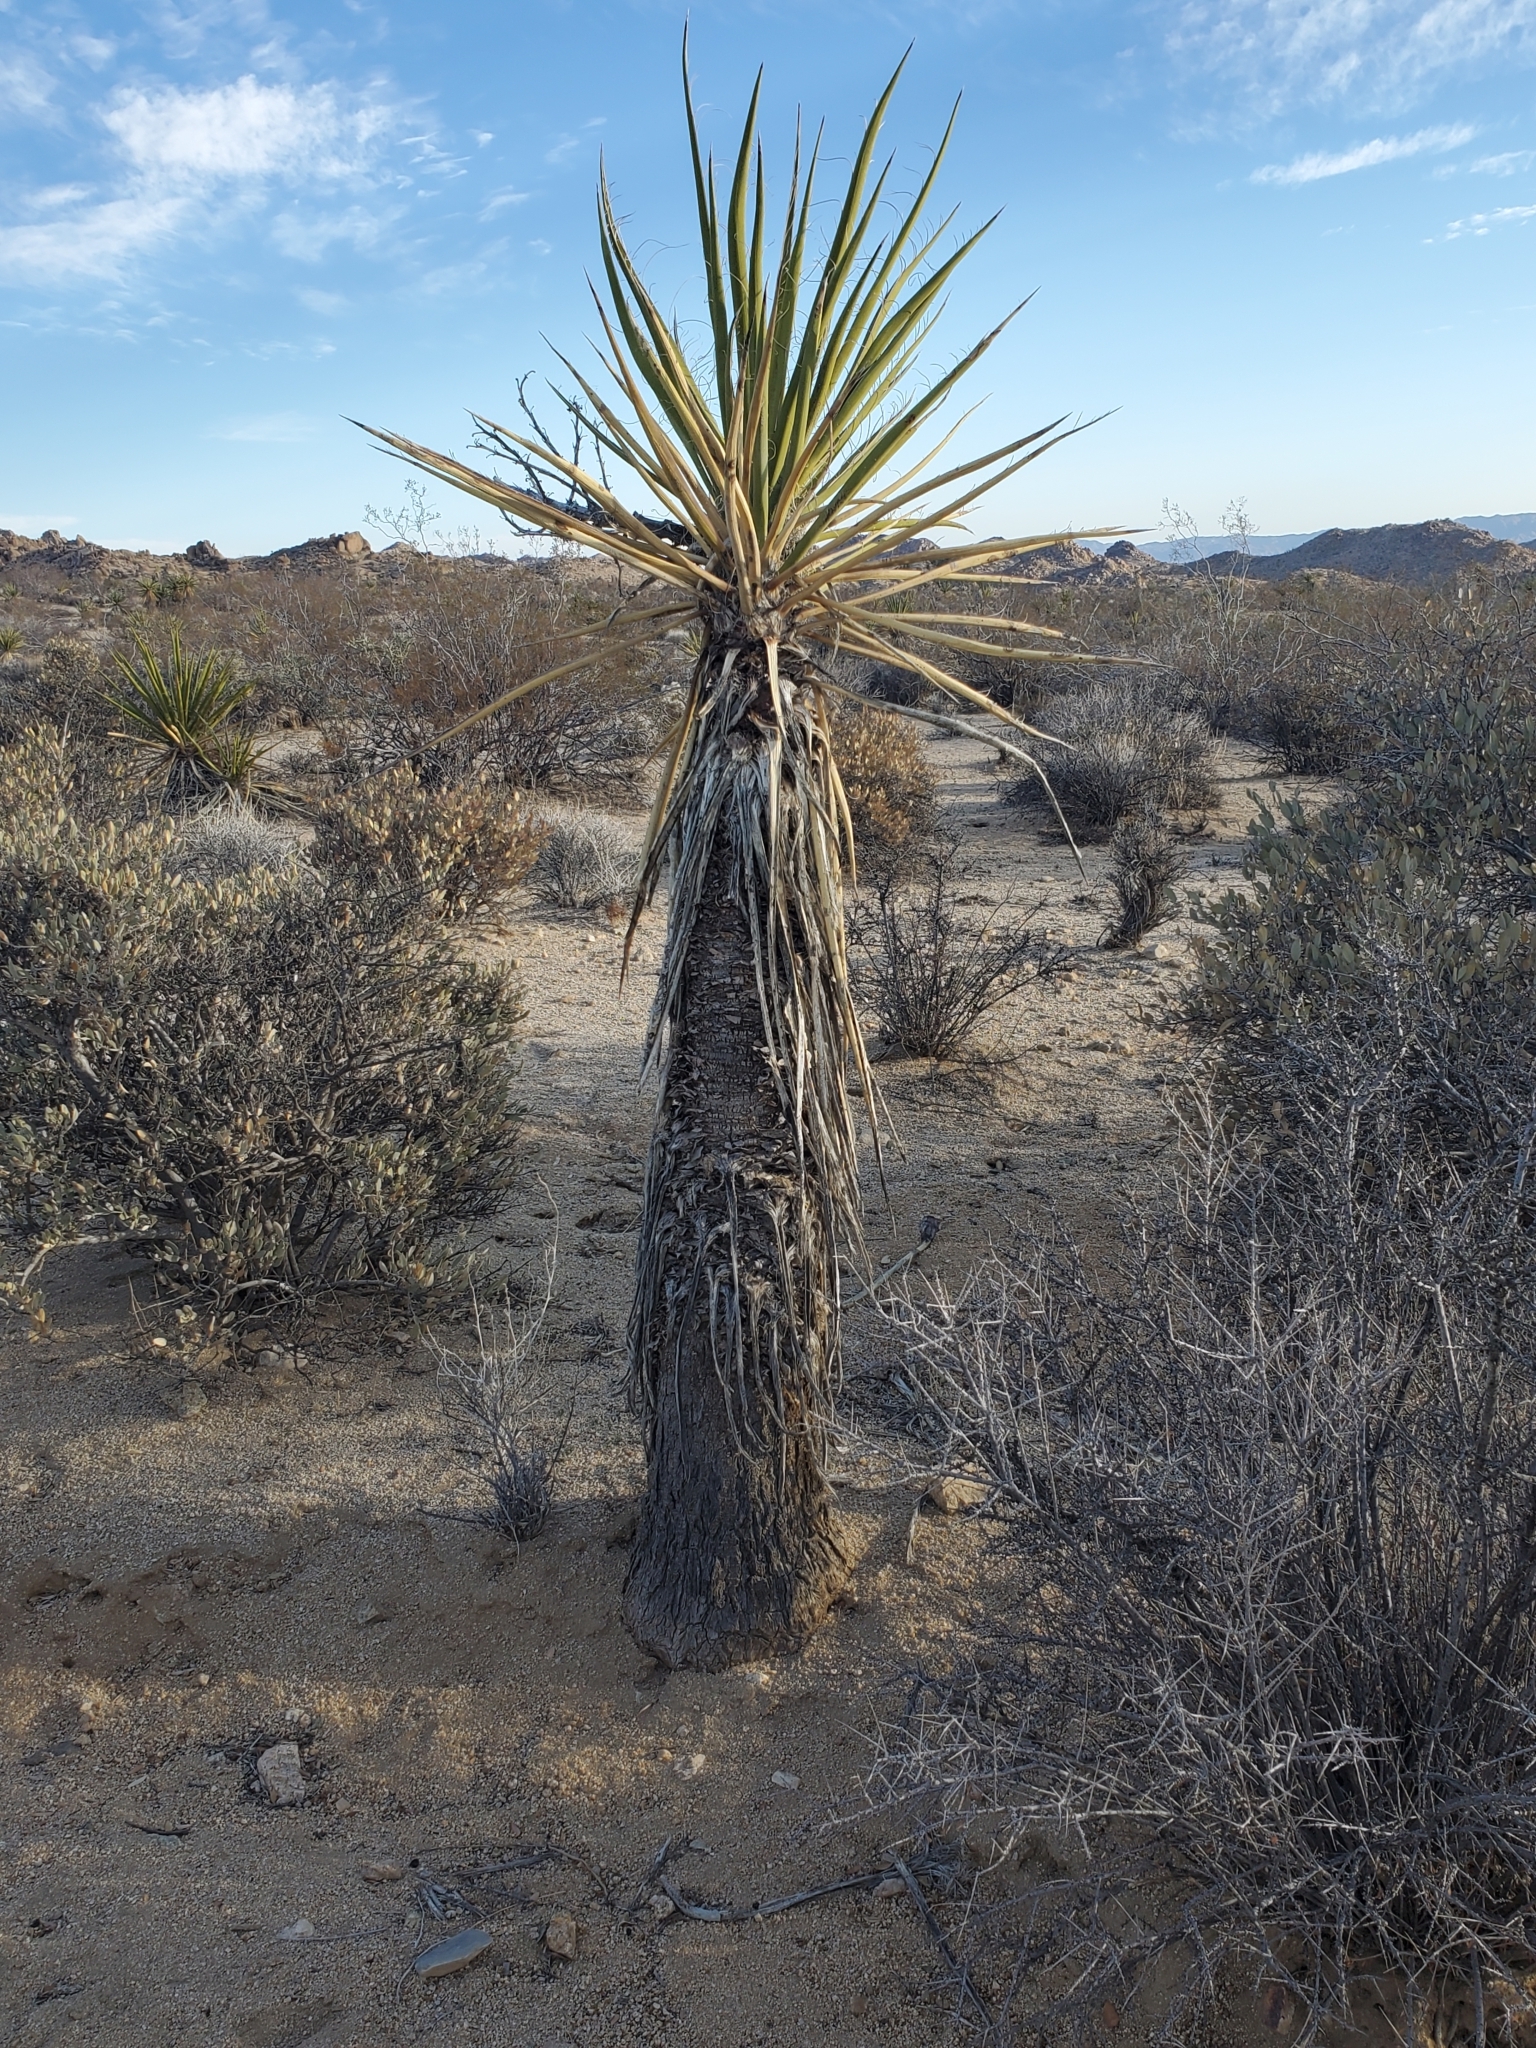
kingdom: Plantae
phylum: Tracheophyta
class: Liliopsida
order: Asparagales
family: Asparagaceae
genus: Yucca
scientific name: Yucca schidigera
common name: Mojave yucca
